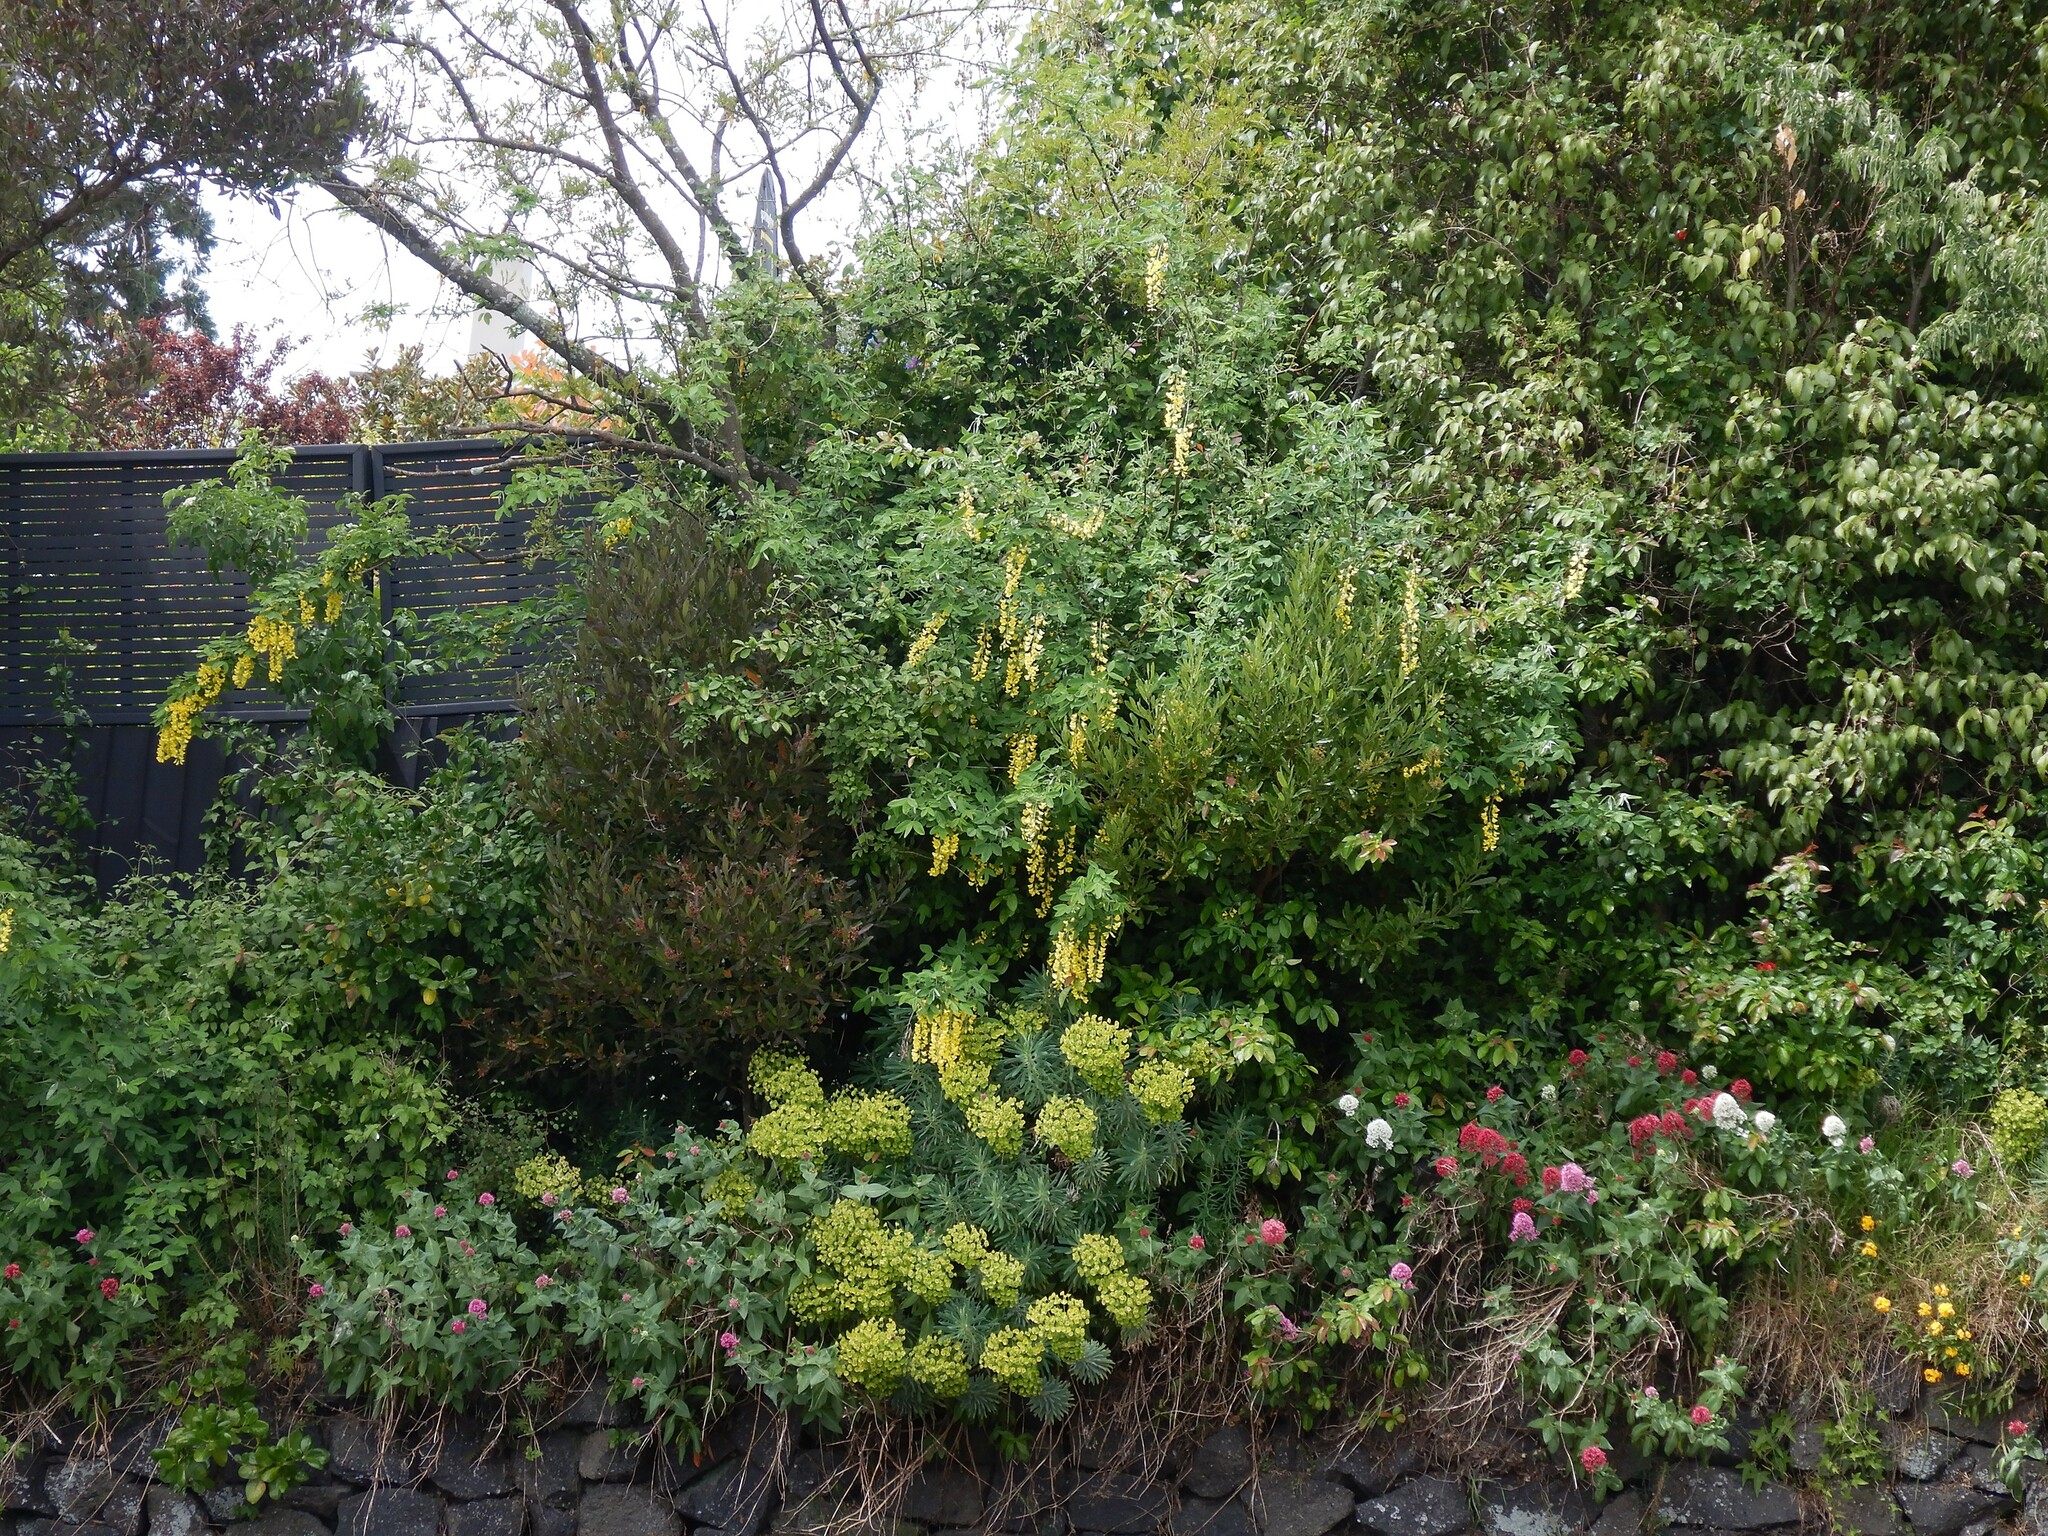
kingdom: Plantae
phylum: Tracheophyta
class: Magnoliopsida
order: Fabales
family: Fabaceae
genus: Laburnum
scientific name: Laburnum anagyroides
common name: Laburnum
